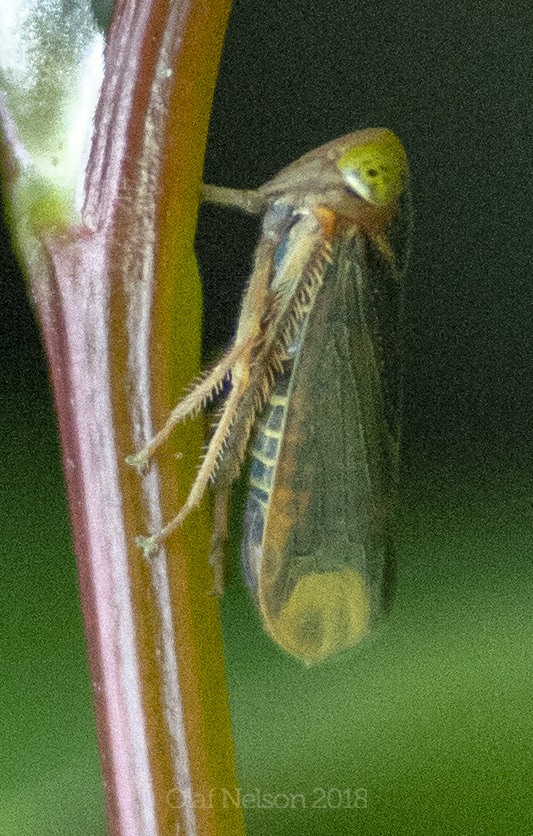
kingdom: Animalia
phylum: Arthropoda
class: Insecta
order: Hemiptera
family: Cicadellidae
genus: Jikradia
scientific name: Jikradia olitoria
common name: Coppery leafhopper
